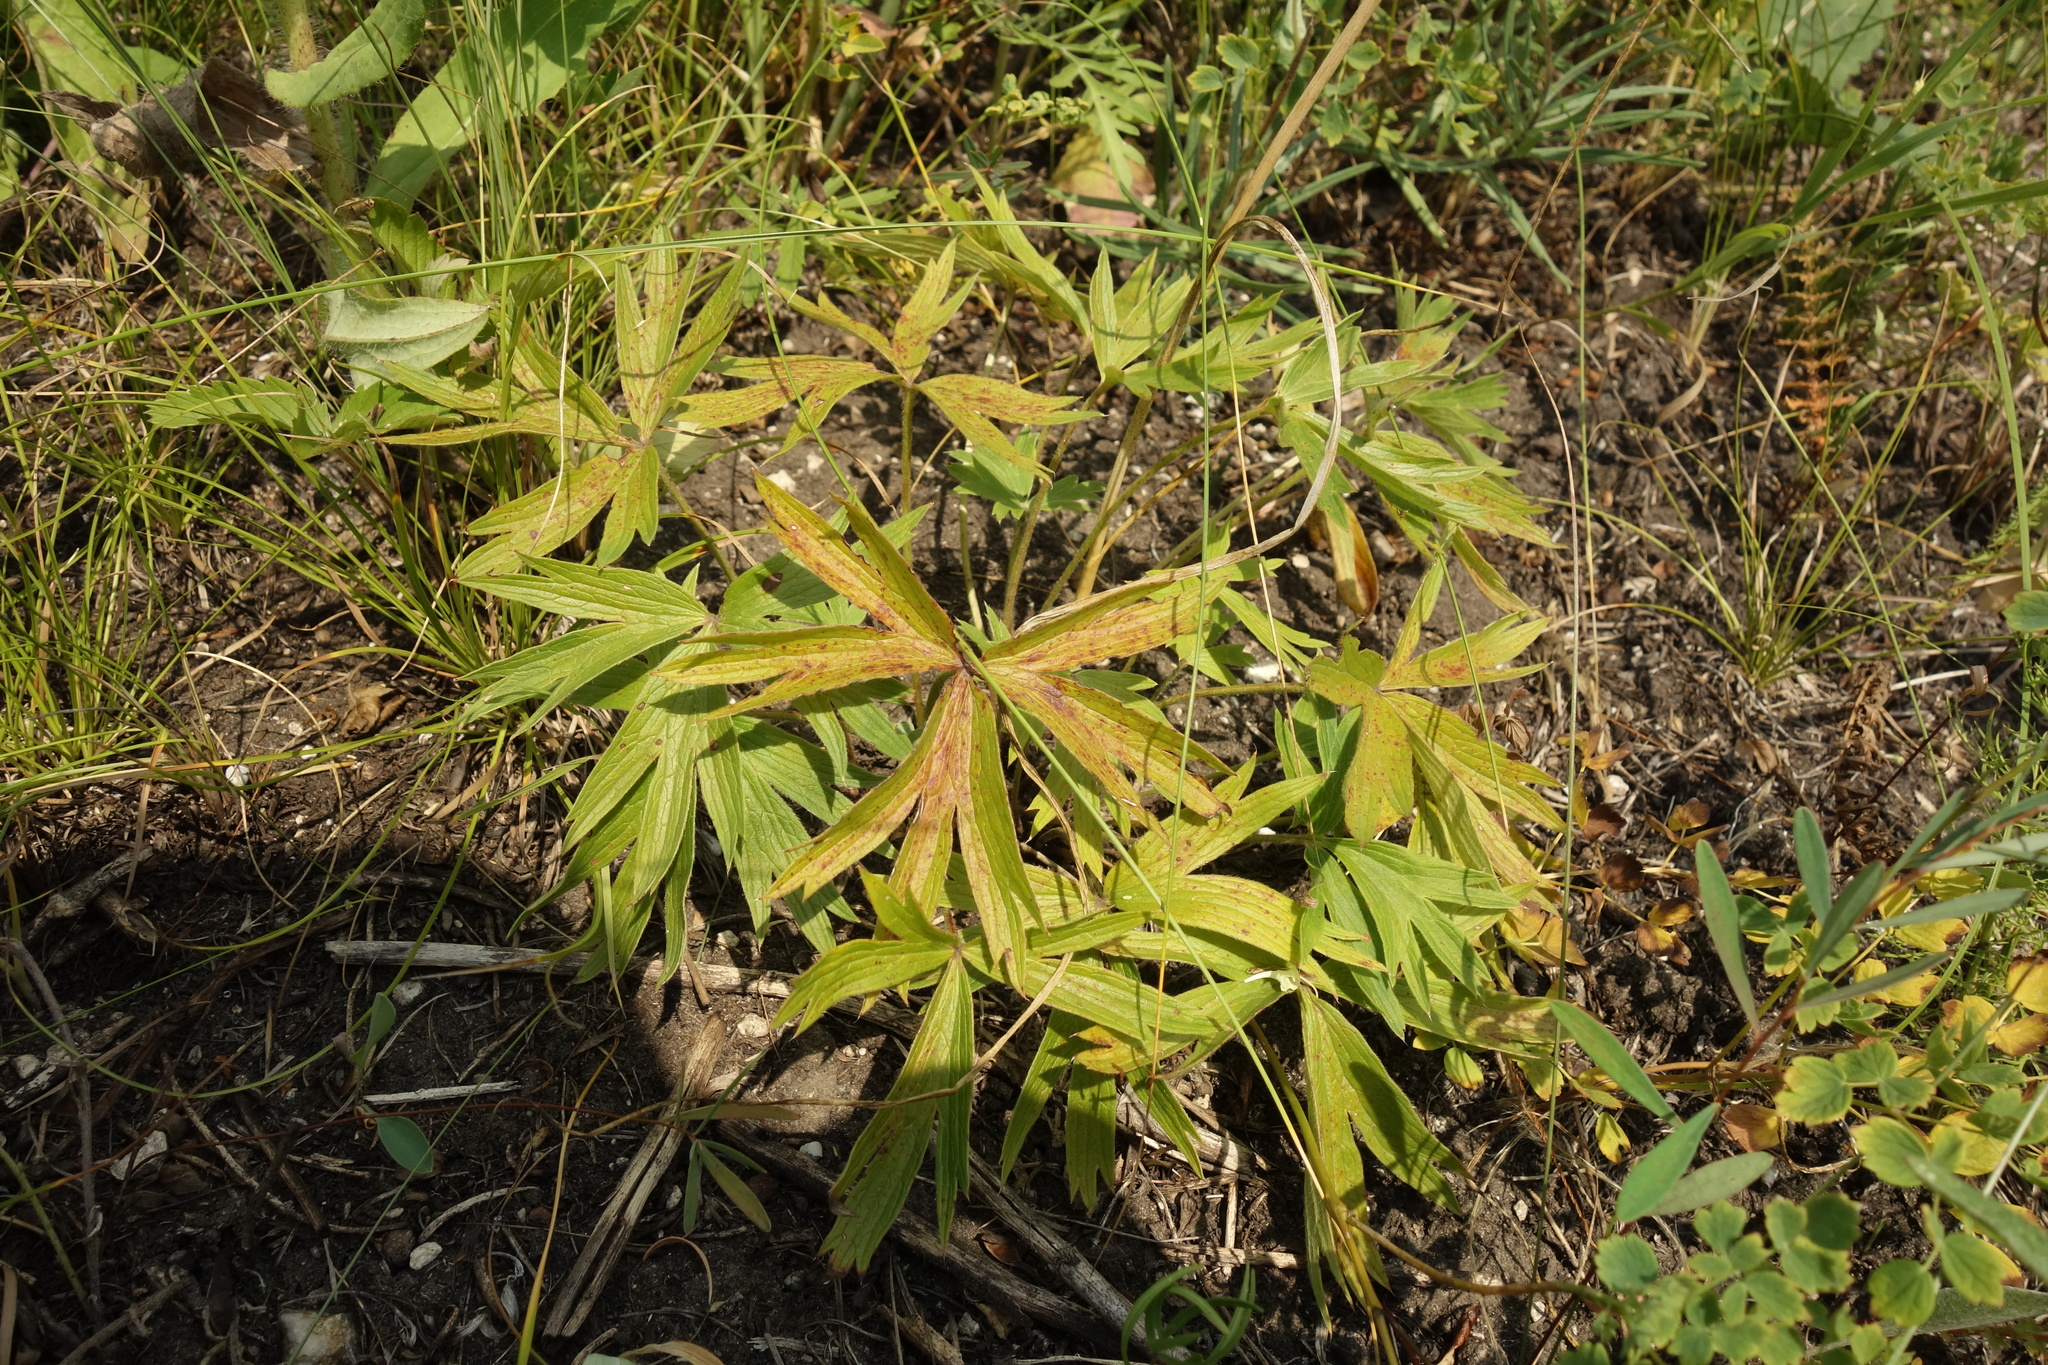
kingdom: Plantae
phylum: Tracheophyta
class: Magnoliopsida
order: Ranunculales
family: Ranunculaceae
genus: Pulsatilla
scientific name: Pulsatilla patens
